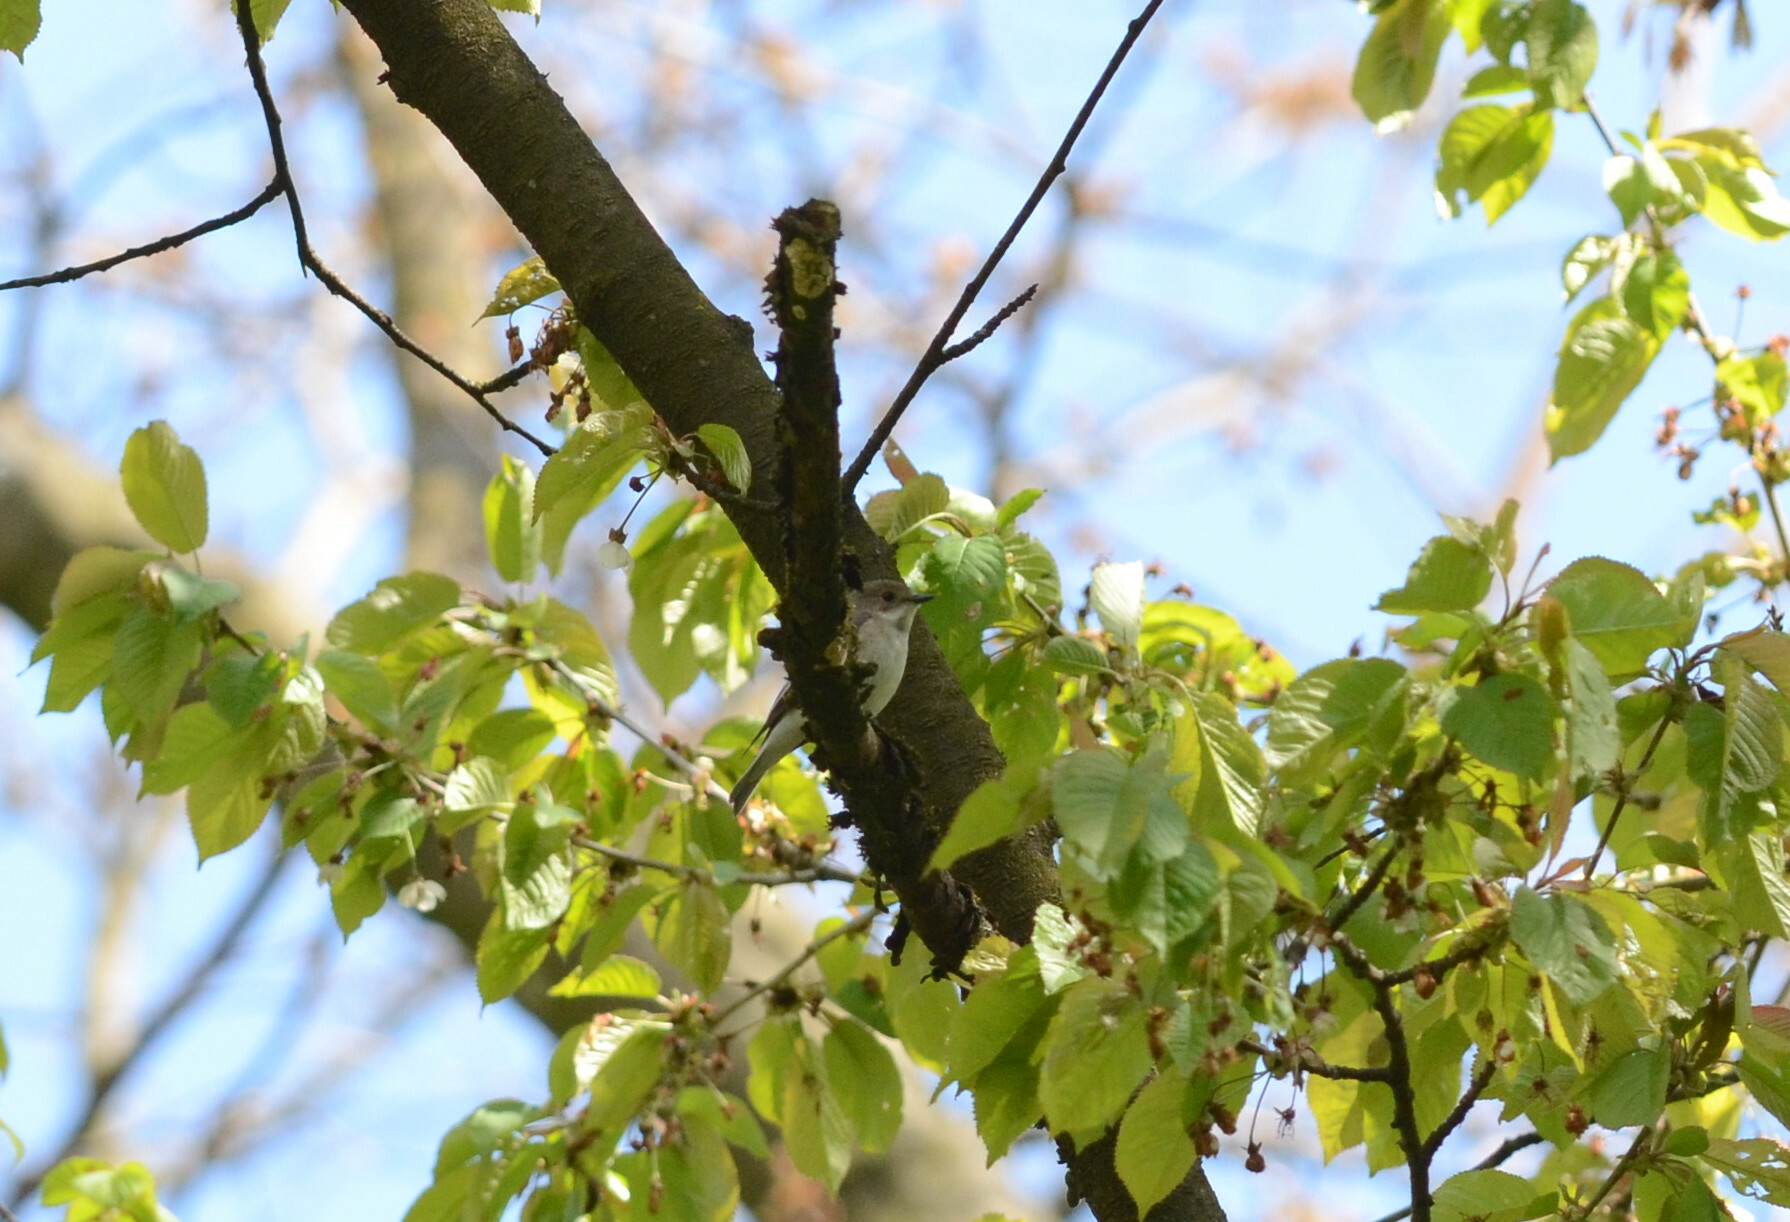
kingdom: Animalia
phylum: Chordata
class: Aves
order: Passeriformes
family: Muscicapidae
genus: Ficedula
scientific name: Ficedula hypoleuca
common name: European pied flycatcher
